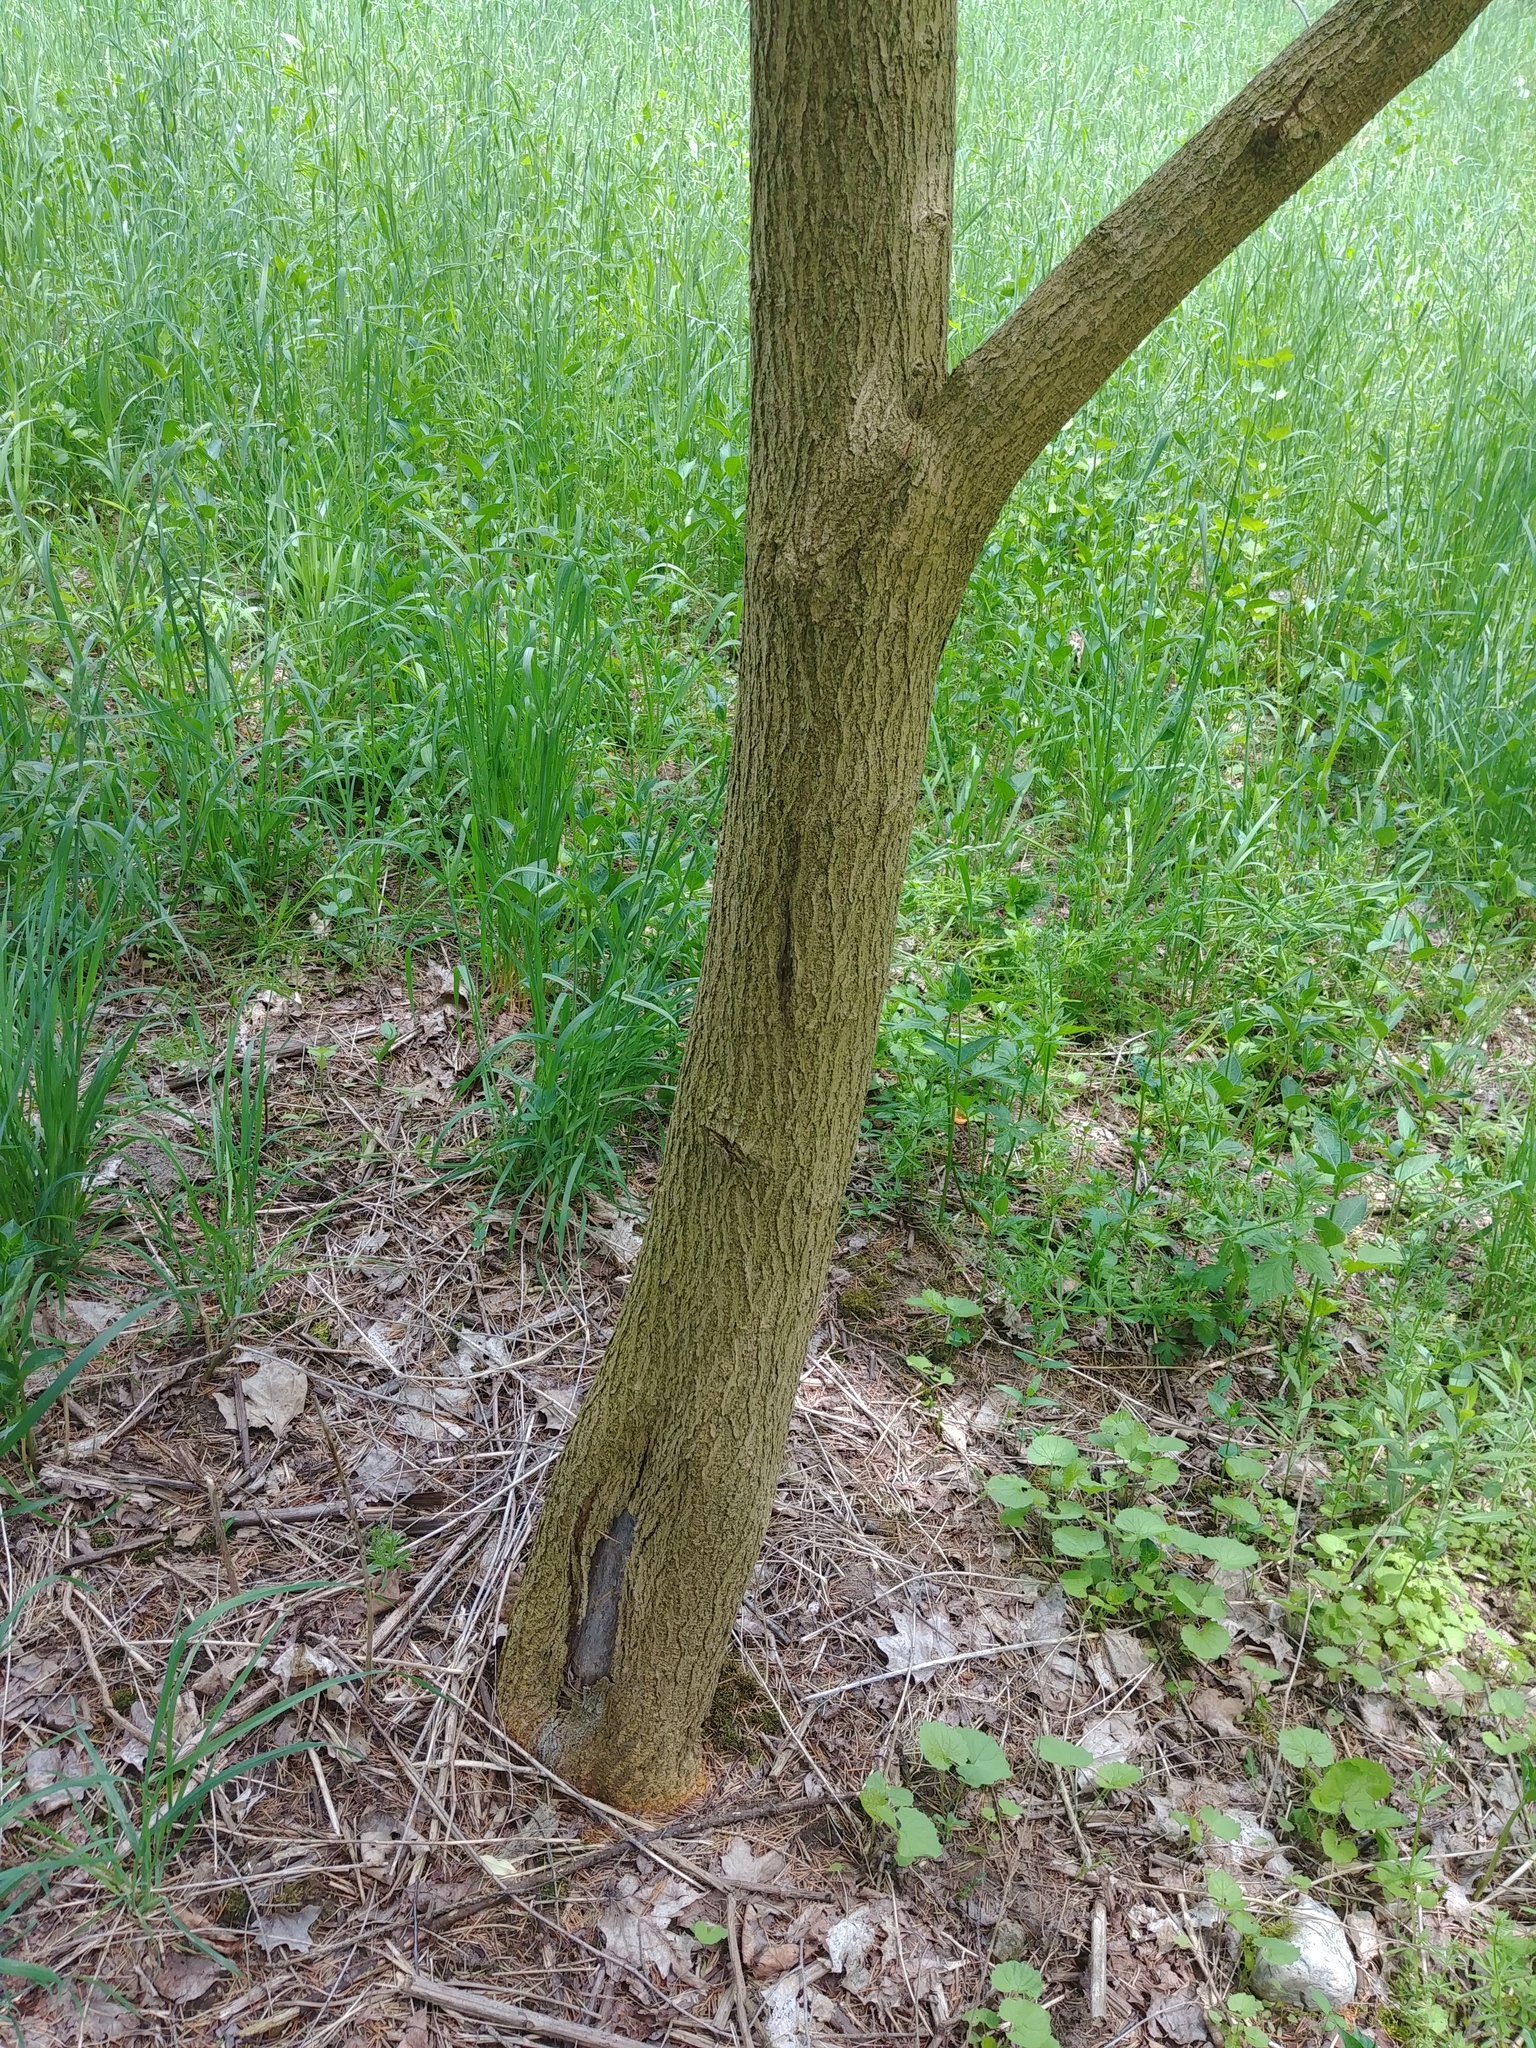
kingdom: Plantae
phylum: Tracheophyta
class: Magnoliopsida
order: Rosales
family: Moraceae
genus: Morus
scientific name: Morus alba
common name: White mulberry
